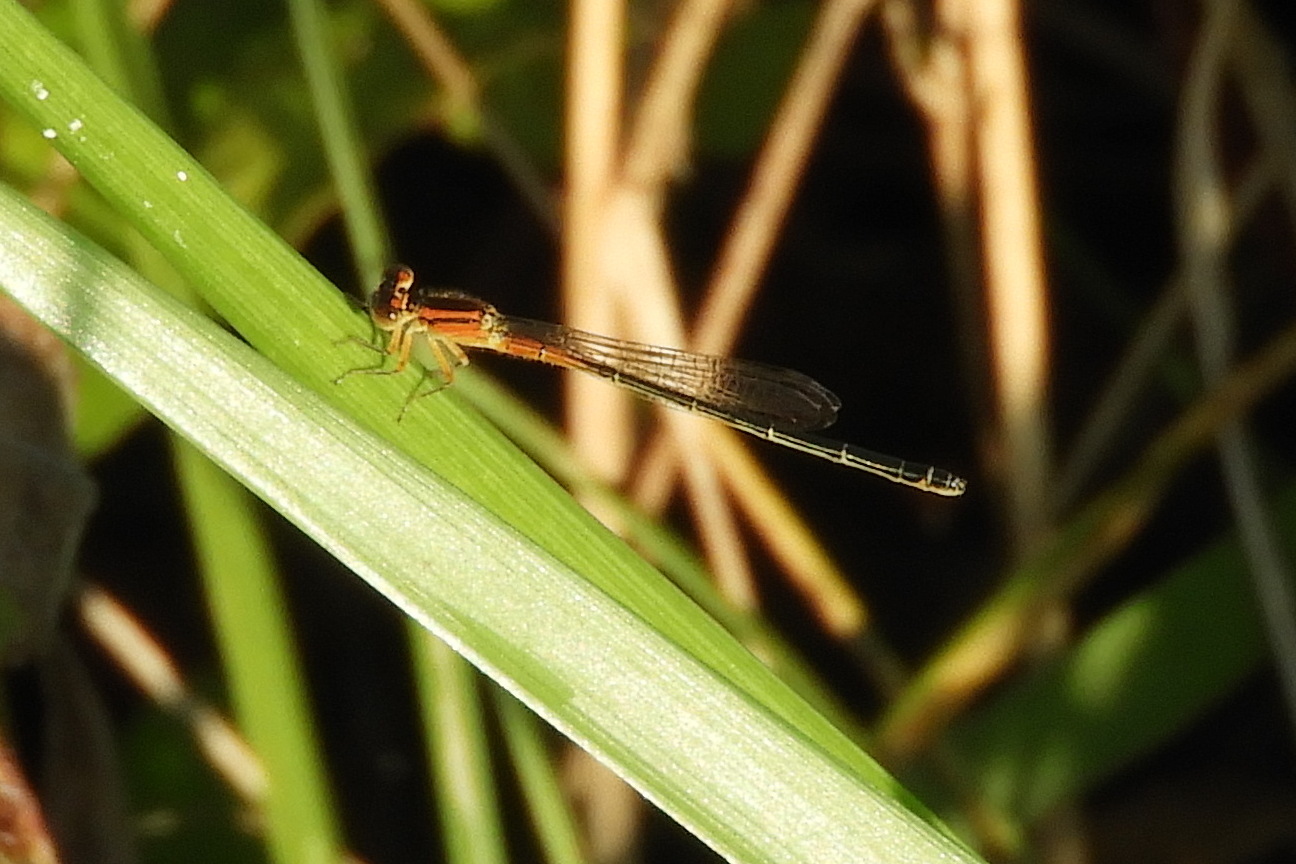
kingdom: Animalia
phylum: Arthropoda
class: Insecta
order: Odonata
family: Coenagrionidae
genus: Ischnura
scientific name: Ischnura verticalis
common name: Eastern forktail
